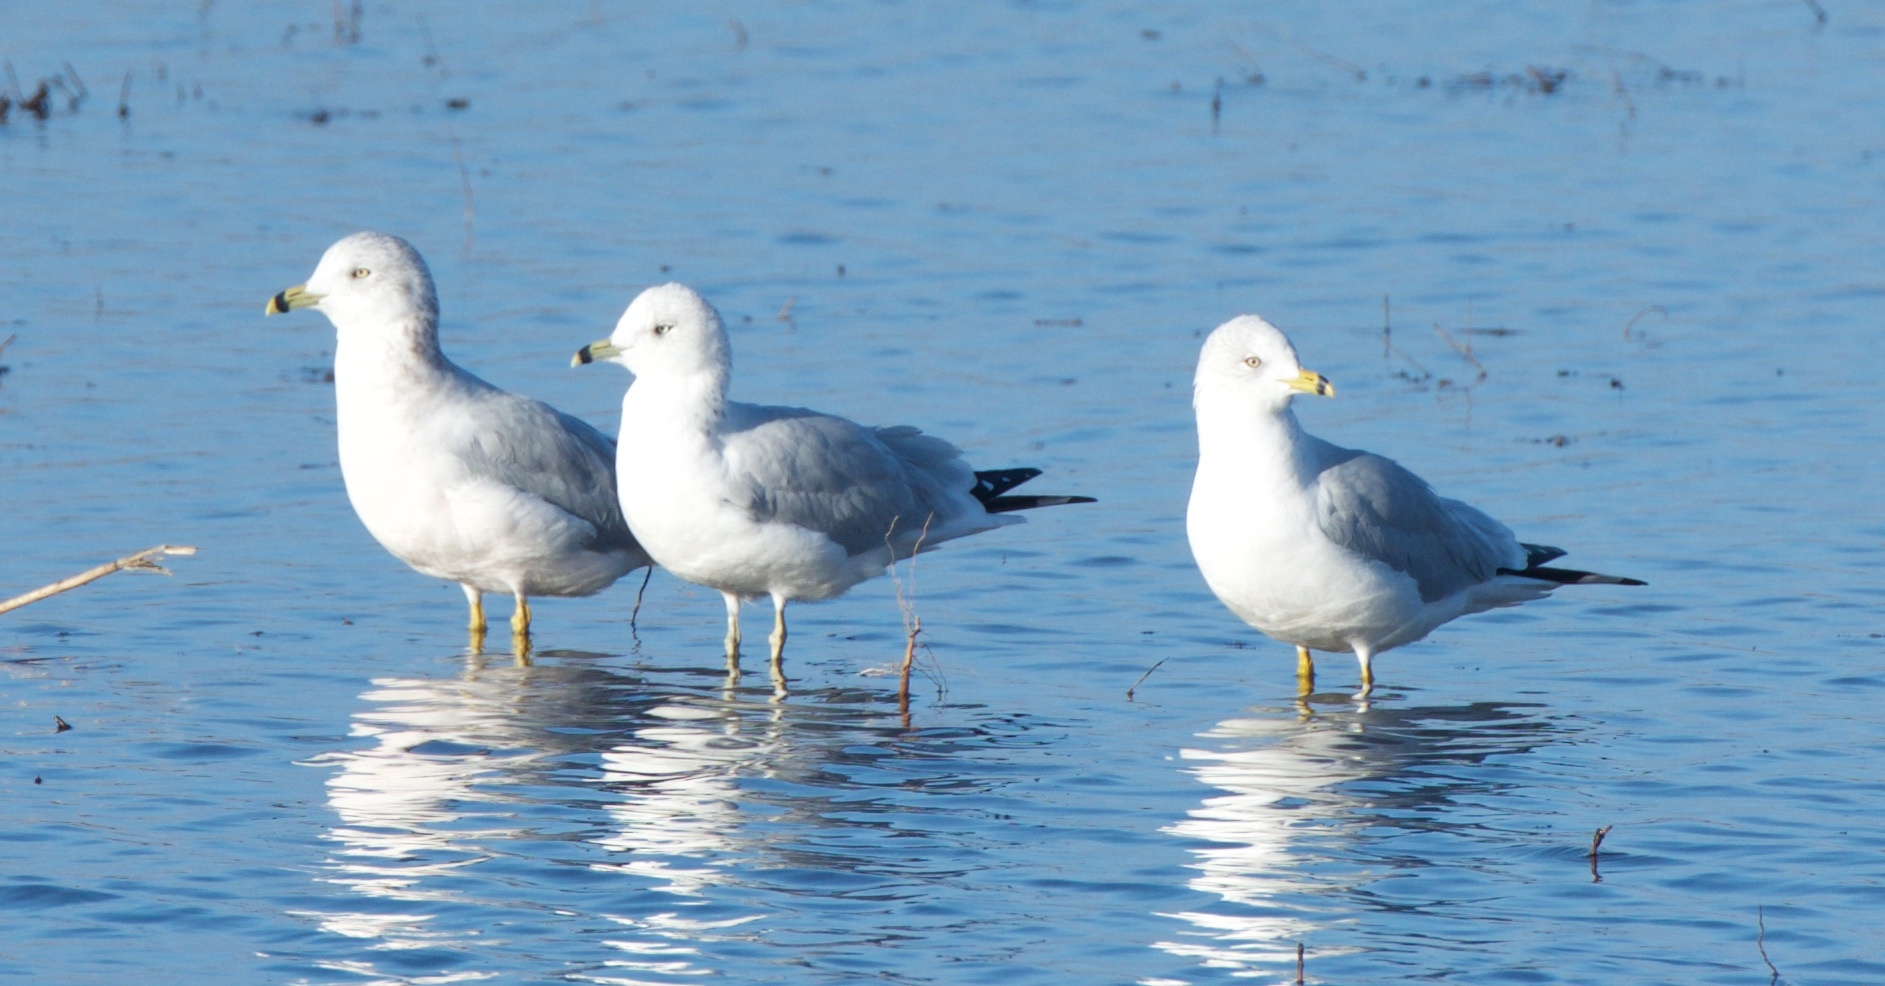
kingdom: Animalia
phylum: Chordata
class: Aves
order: Charadriiformes
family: Laridae
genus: Larus
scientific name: Larus delawarensis
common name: Ring-billed gull
